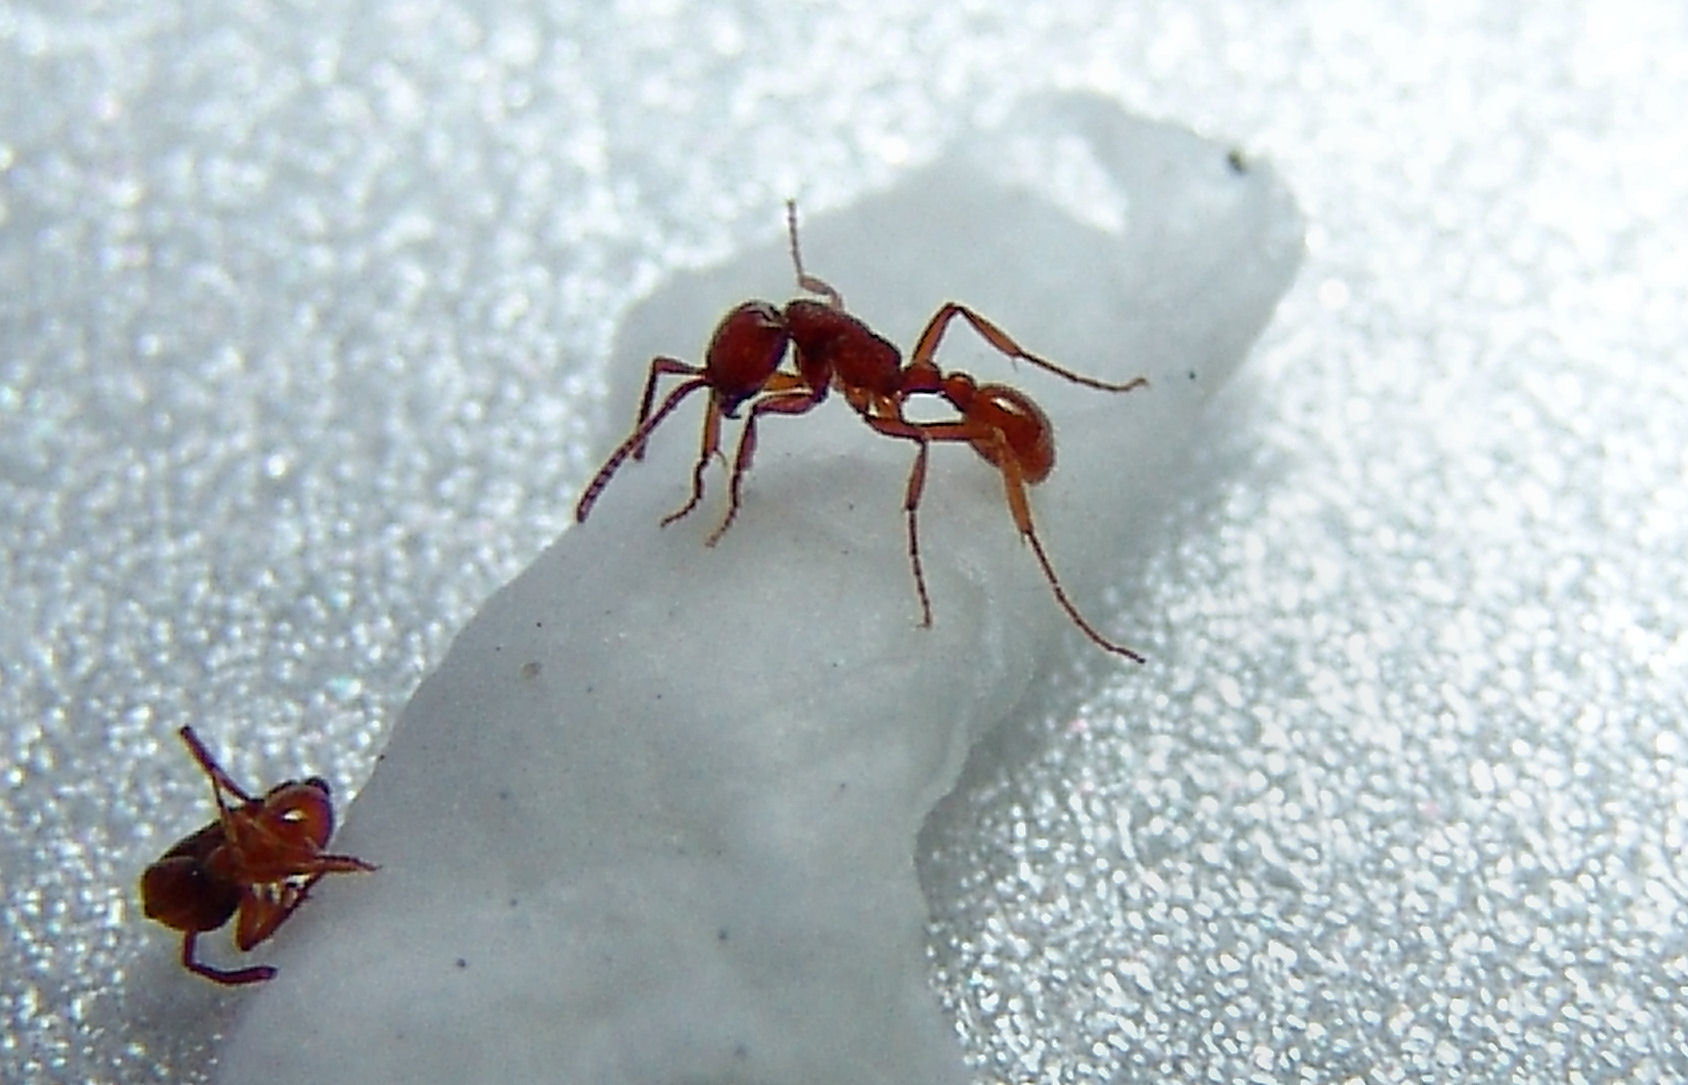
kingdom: Animalia
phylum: Arthropoda
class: Insecta
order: Hymenoptera
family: Formicidae
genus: Neivamyrmex
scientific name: Neivamyrmex opacithorax
